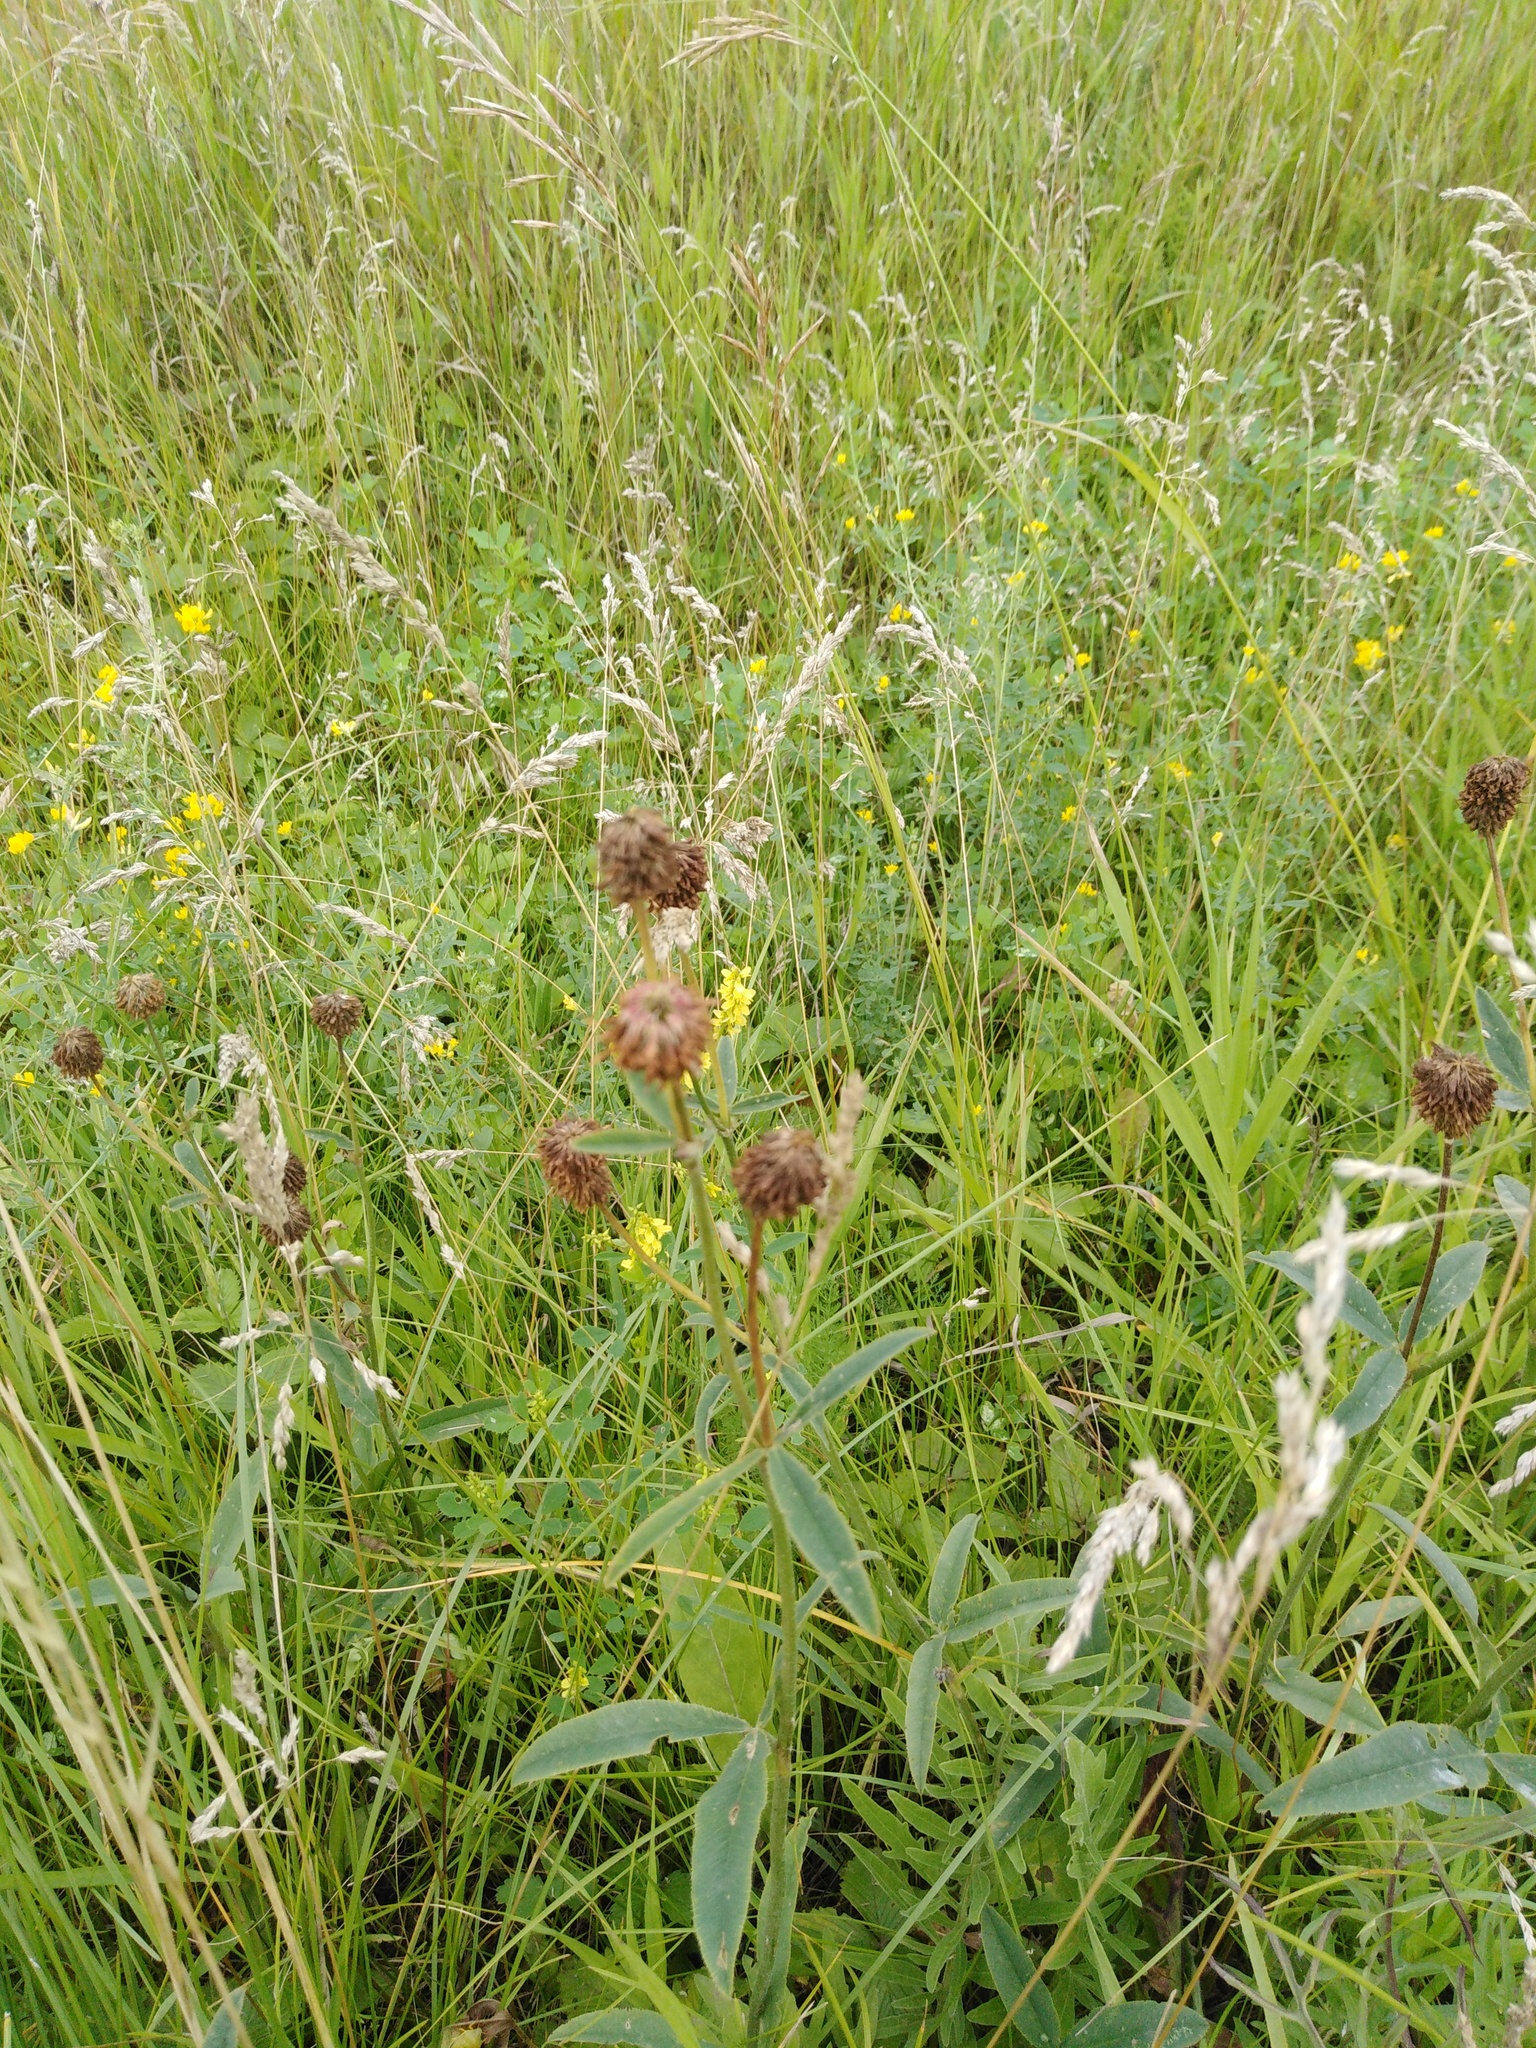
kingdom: Plantae
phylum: Tracheophyta
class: Magnoliopsida
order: Fabales
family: Fabaceae
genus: Trifolium
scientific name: Trifolium montanum
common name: Mountain clover
